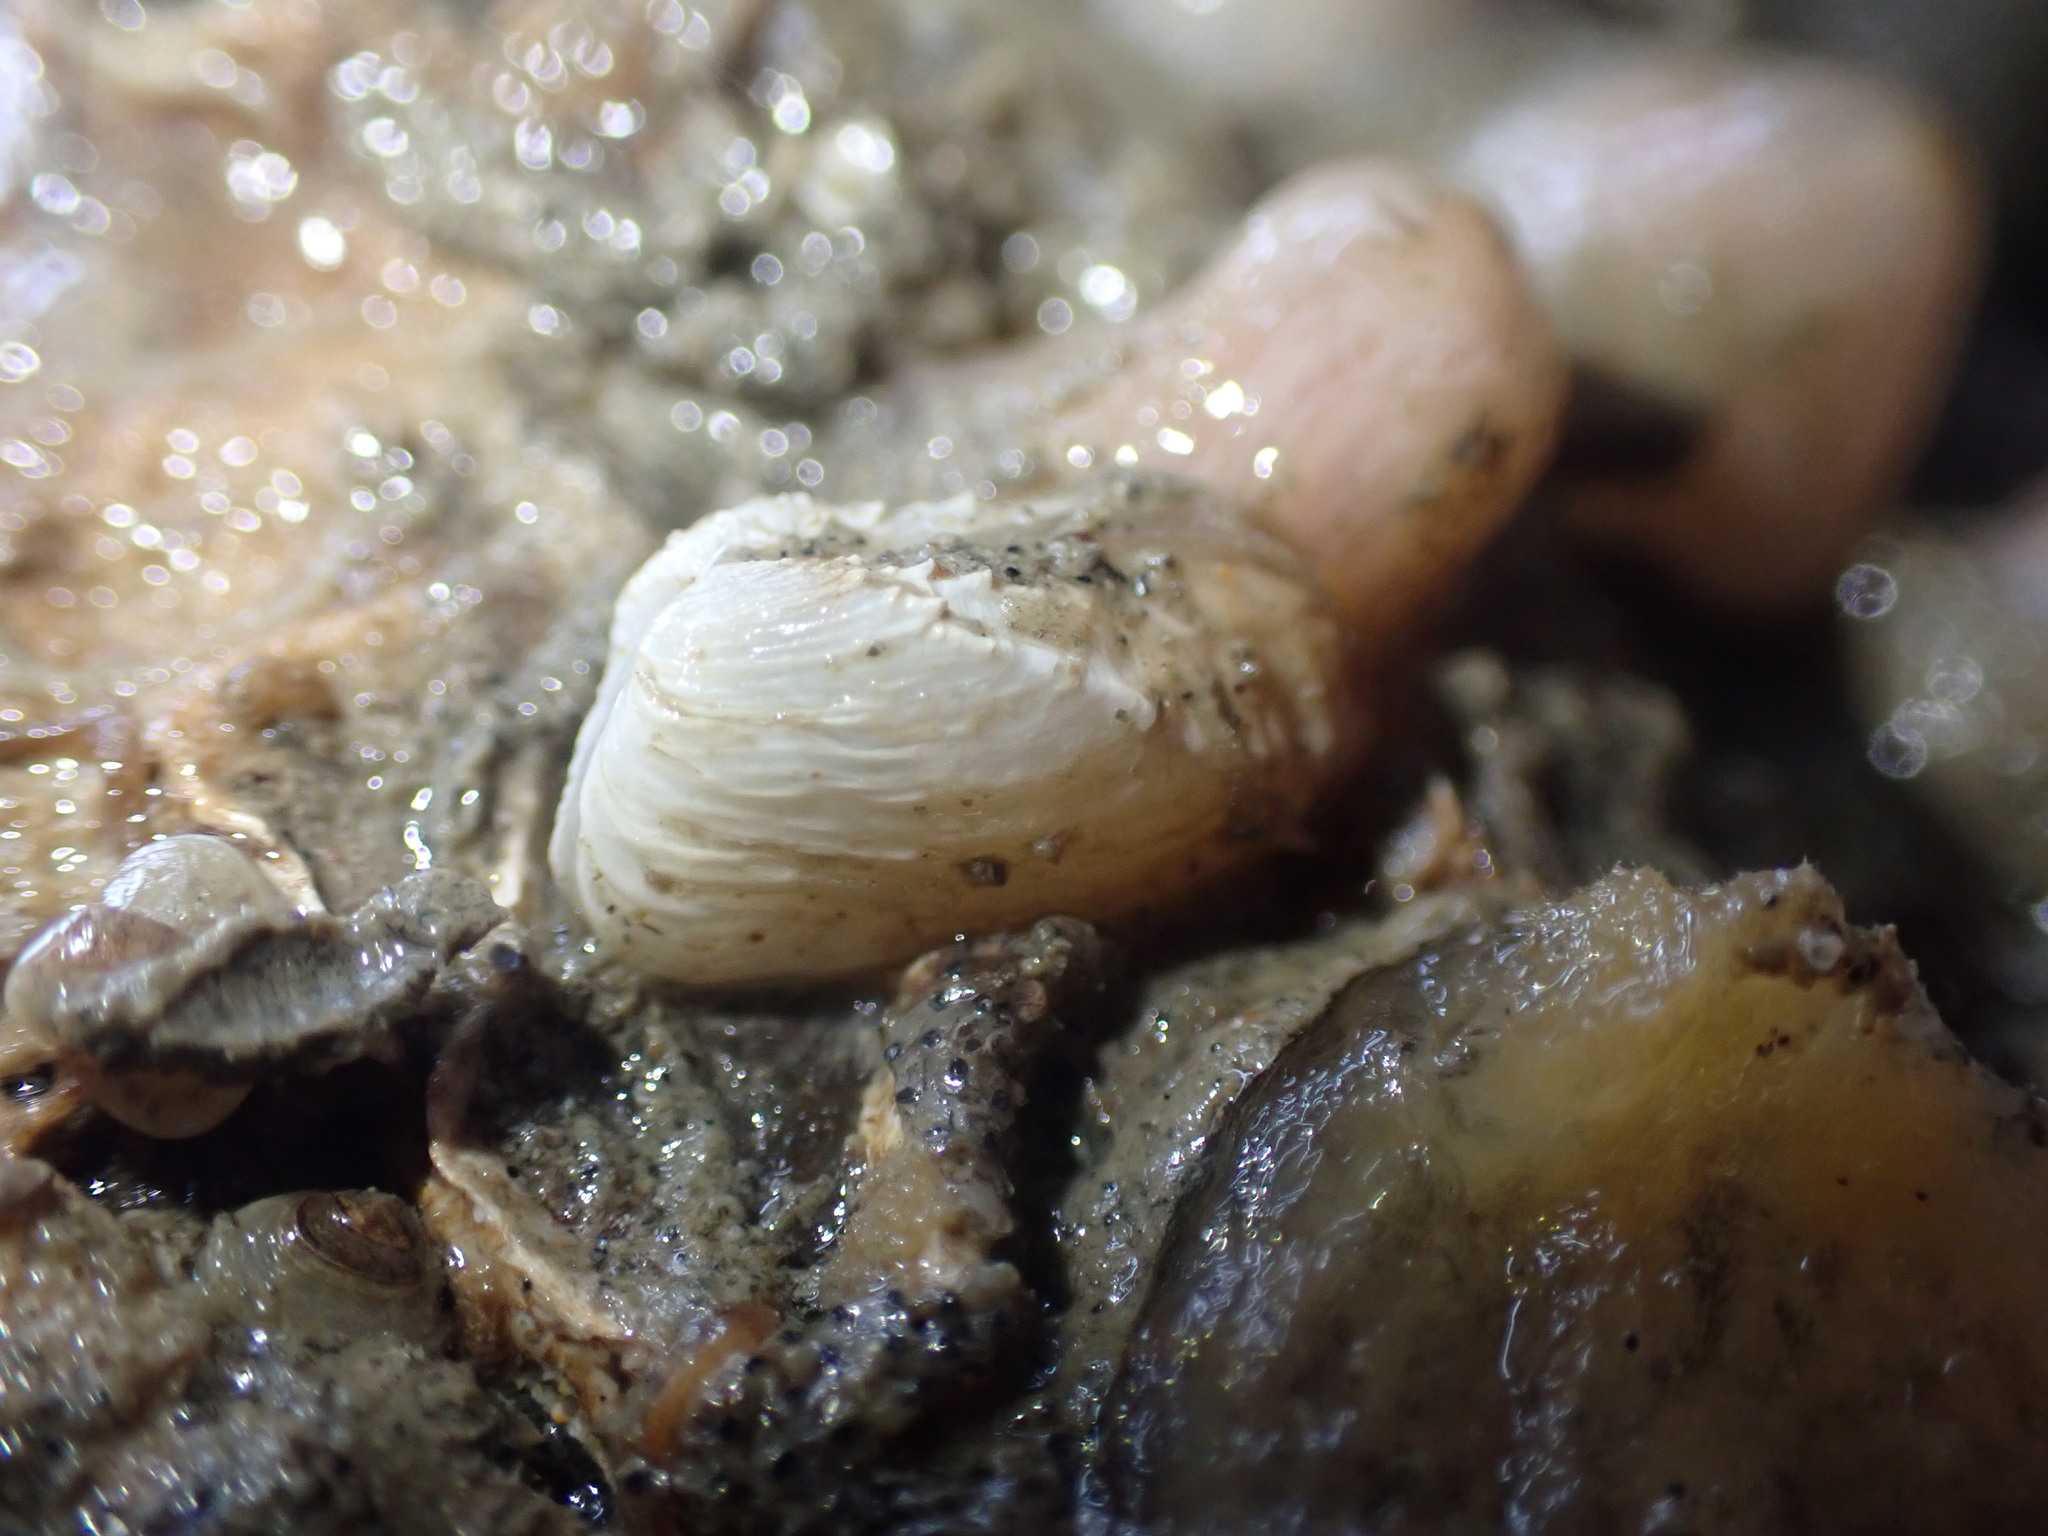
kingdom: Animalia
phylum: Mollusca
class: Bivalvia
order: Adapedonta
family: Hiatellidae
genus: Hiatella
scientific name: Hiatella arctica
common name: Arctic hiatella
